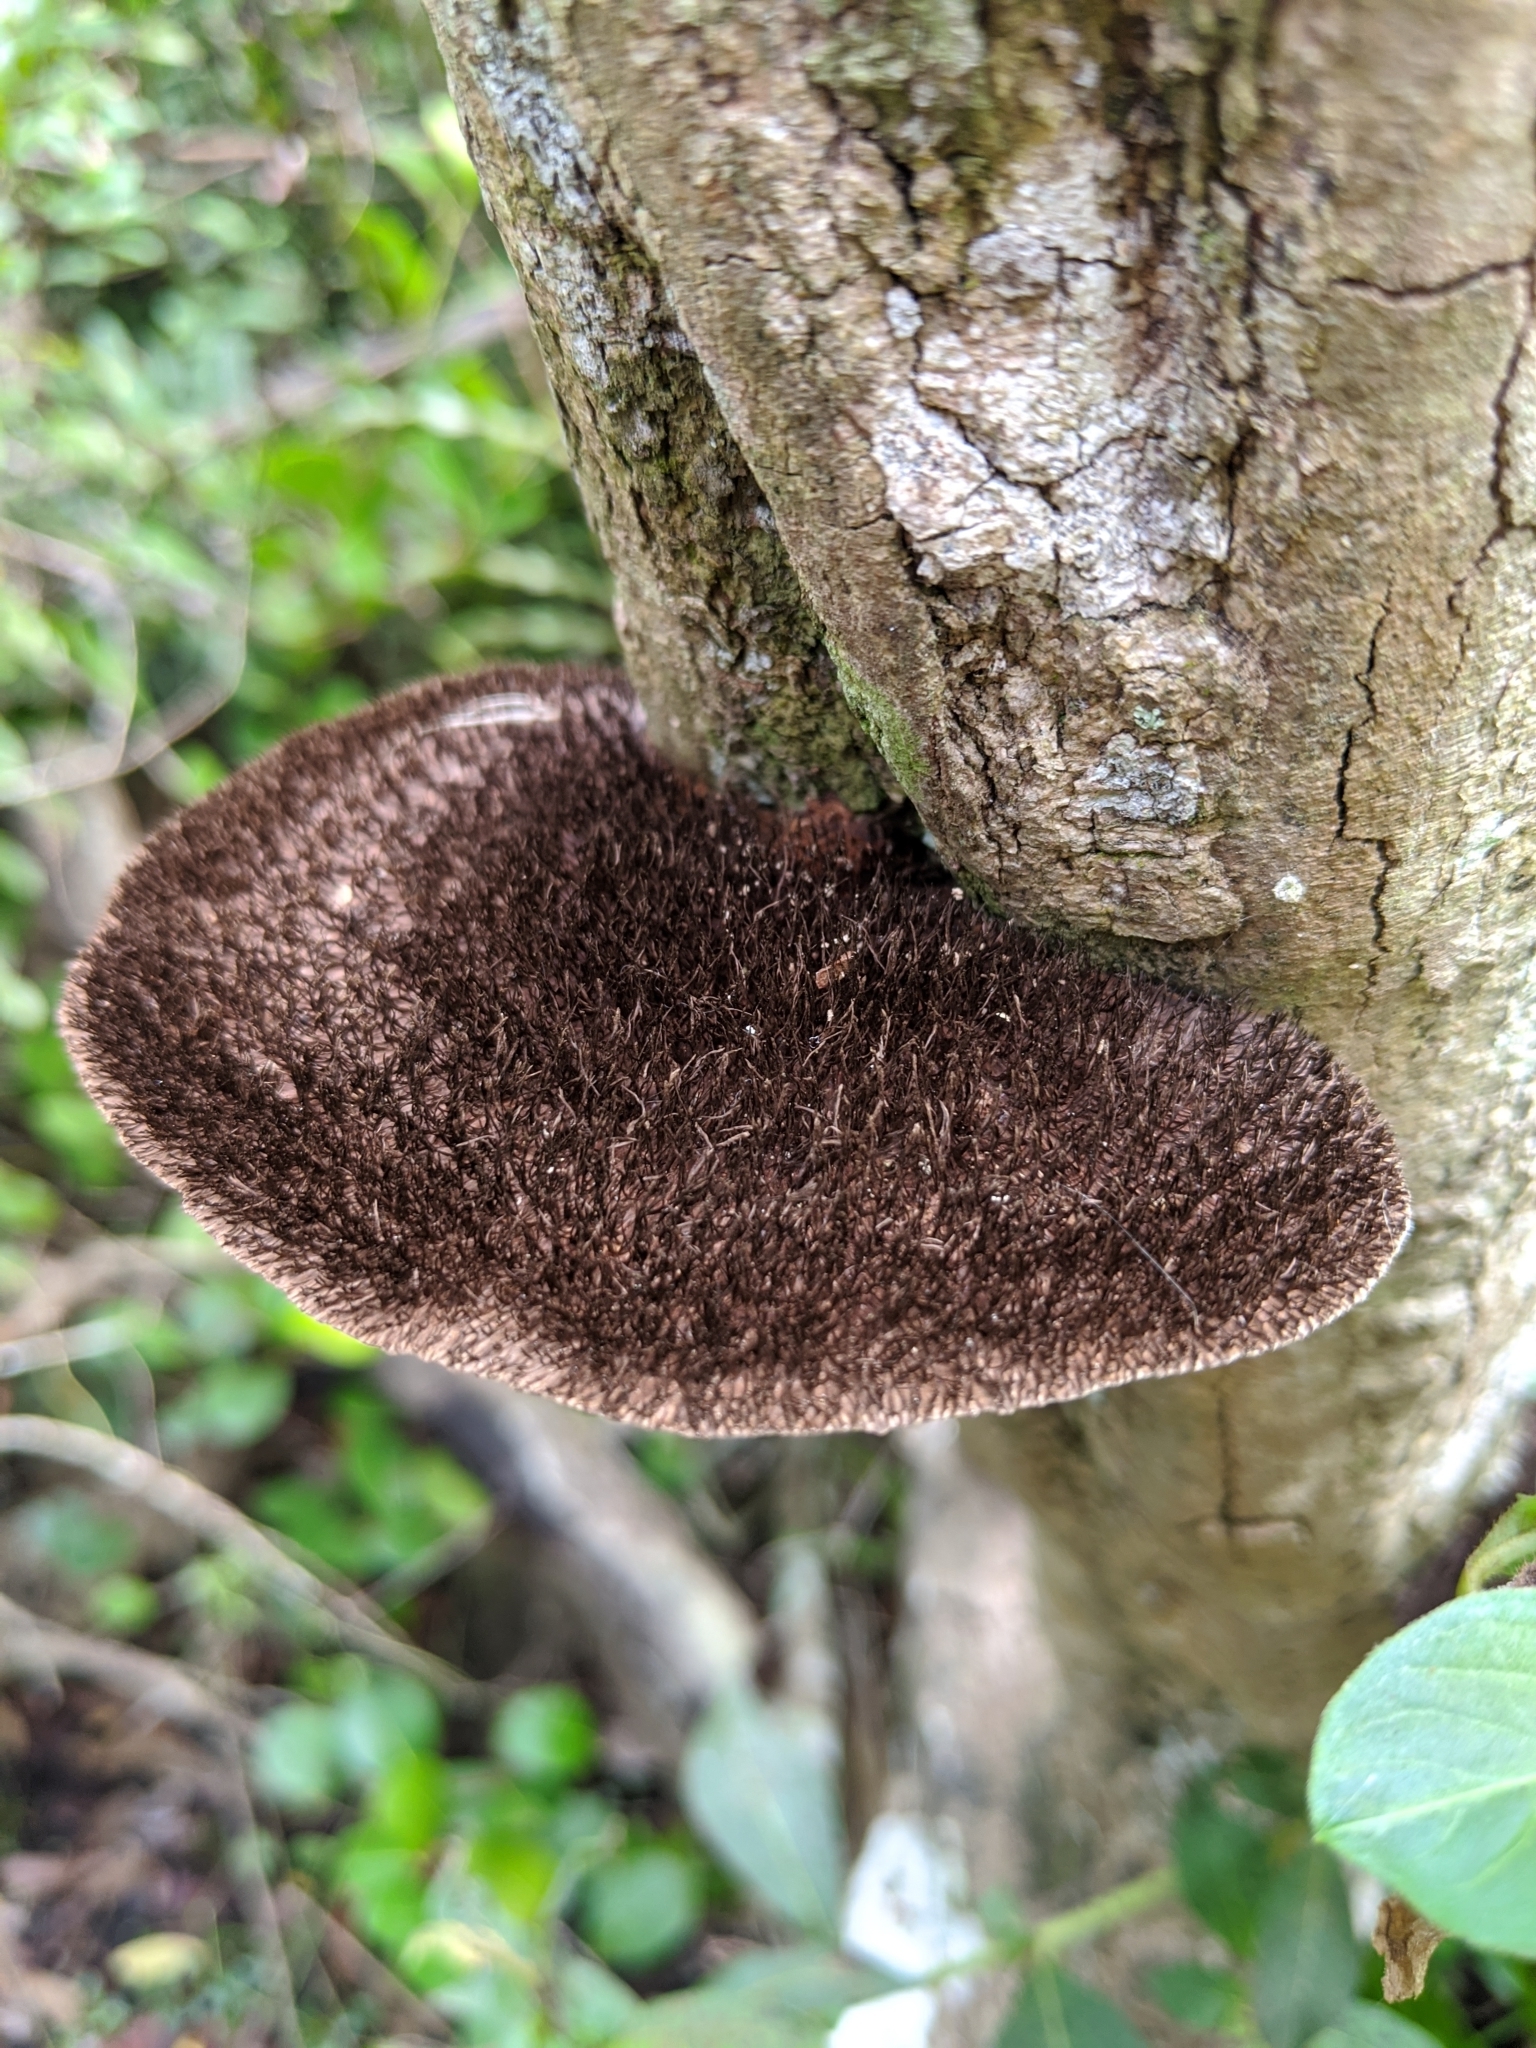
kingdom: Fungi
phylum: Basidiomycota
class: Agaricomycetes
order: Polyporales
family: Cerrenaceae
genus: Cerrena
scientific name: Cerrena hydnoides
